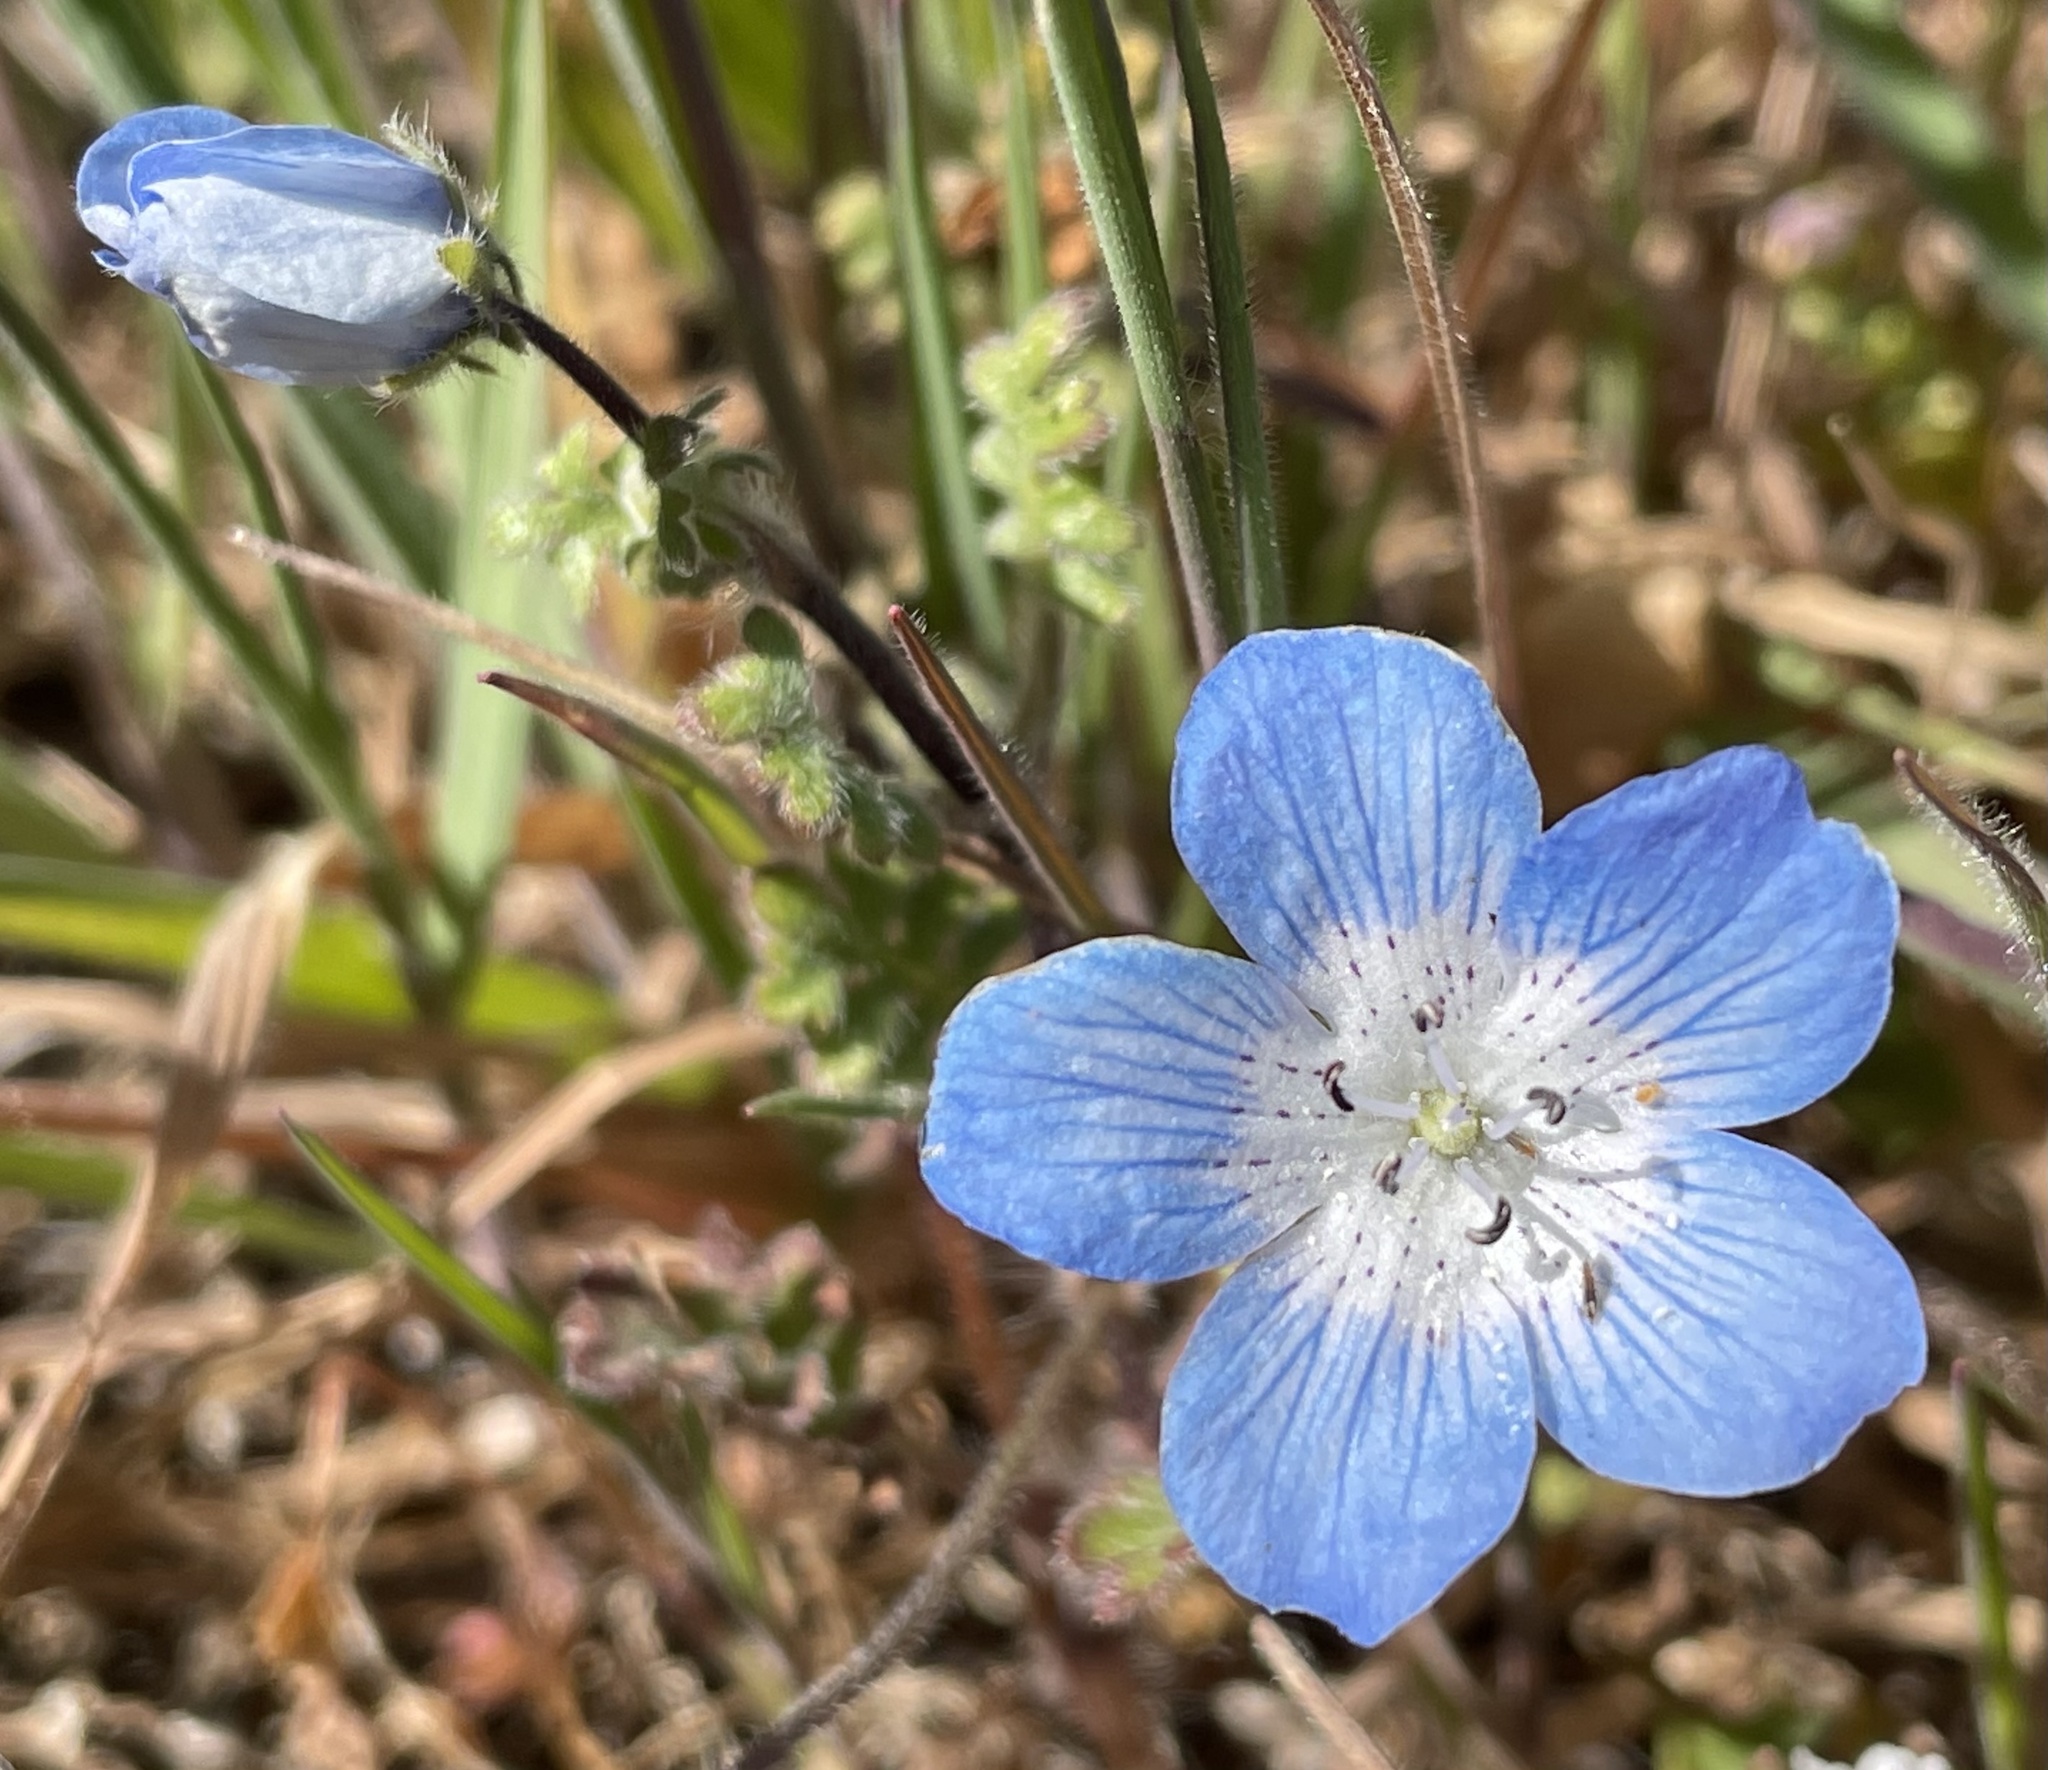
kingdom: Plantae
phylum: Tracheophyta
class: Magnoliopsida
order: Boraginales
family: Hydrophyllaceae
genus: Nemophila
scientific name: Nemophila menziesii
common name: Baby's-blue-eyes
